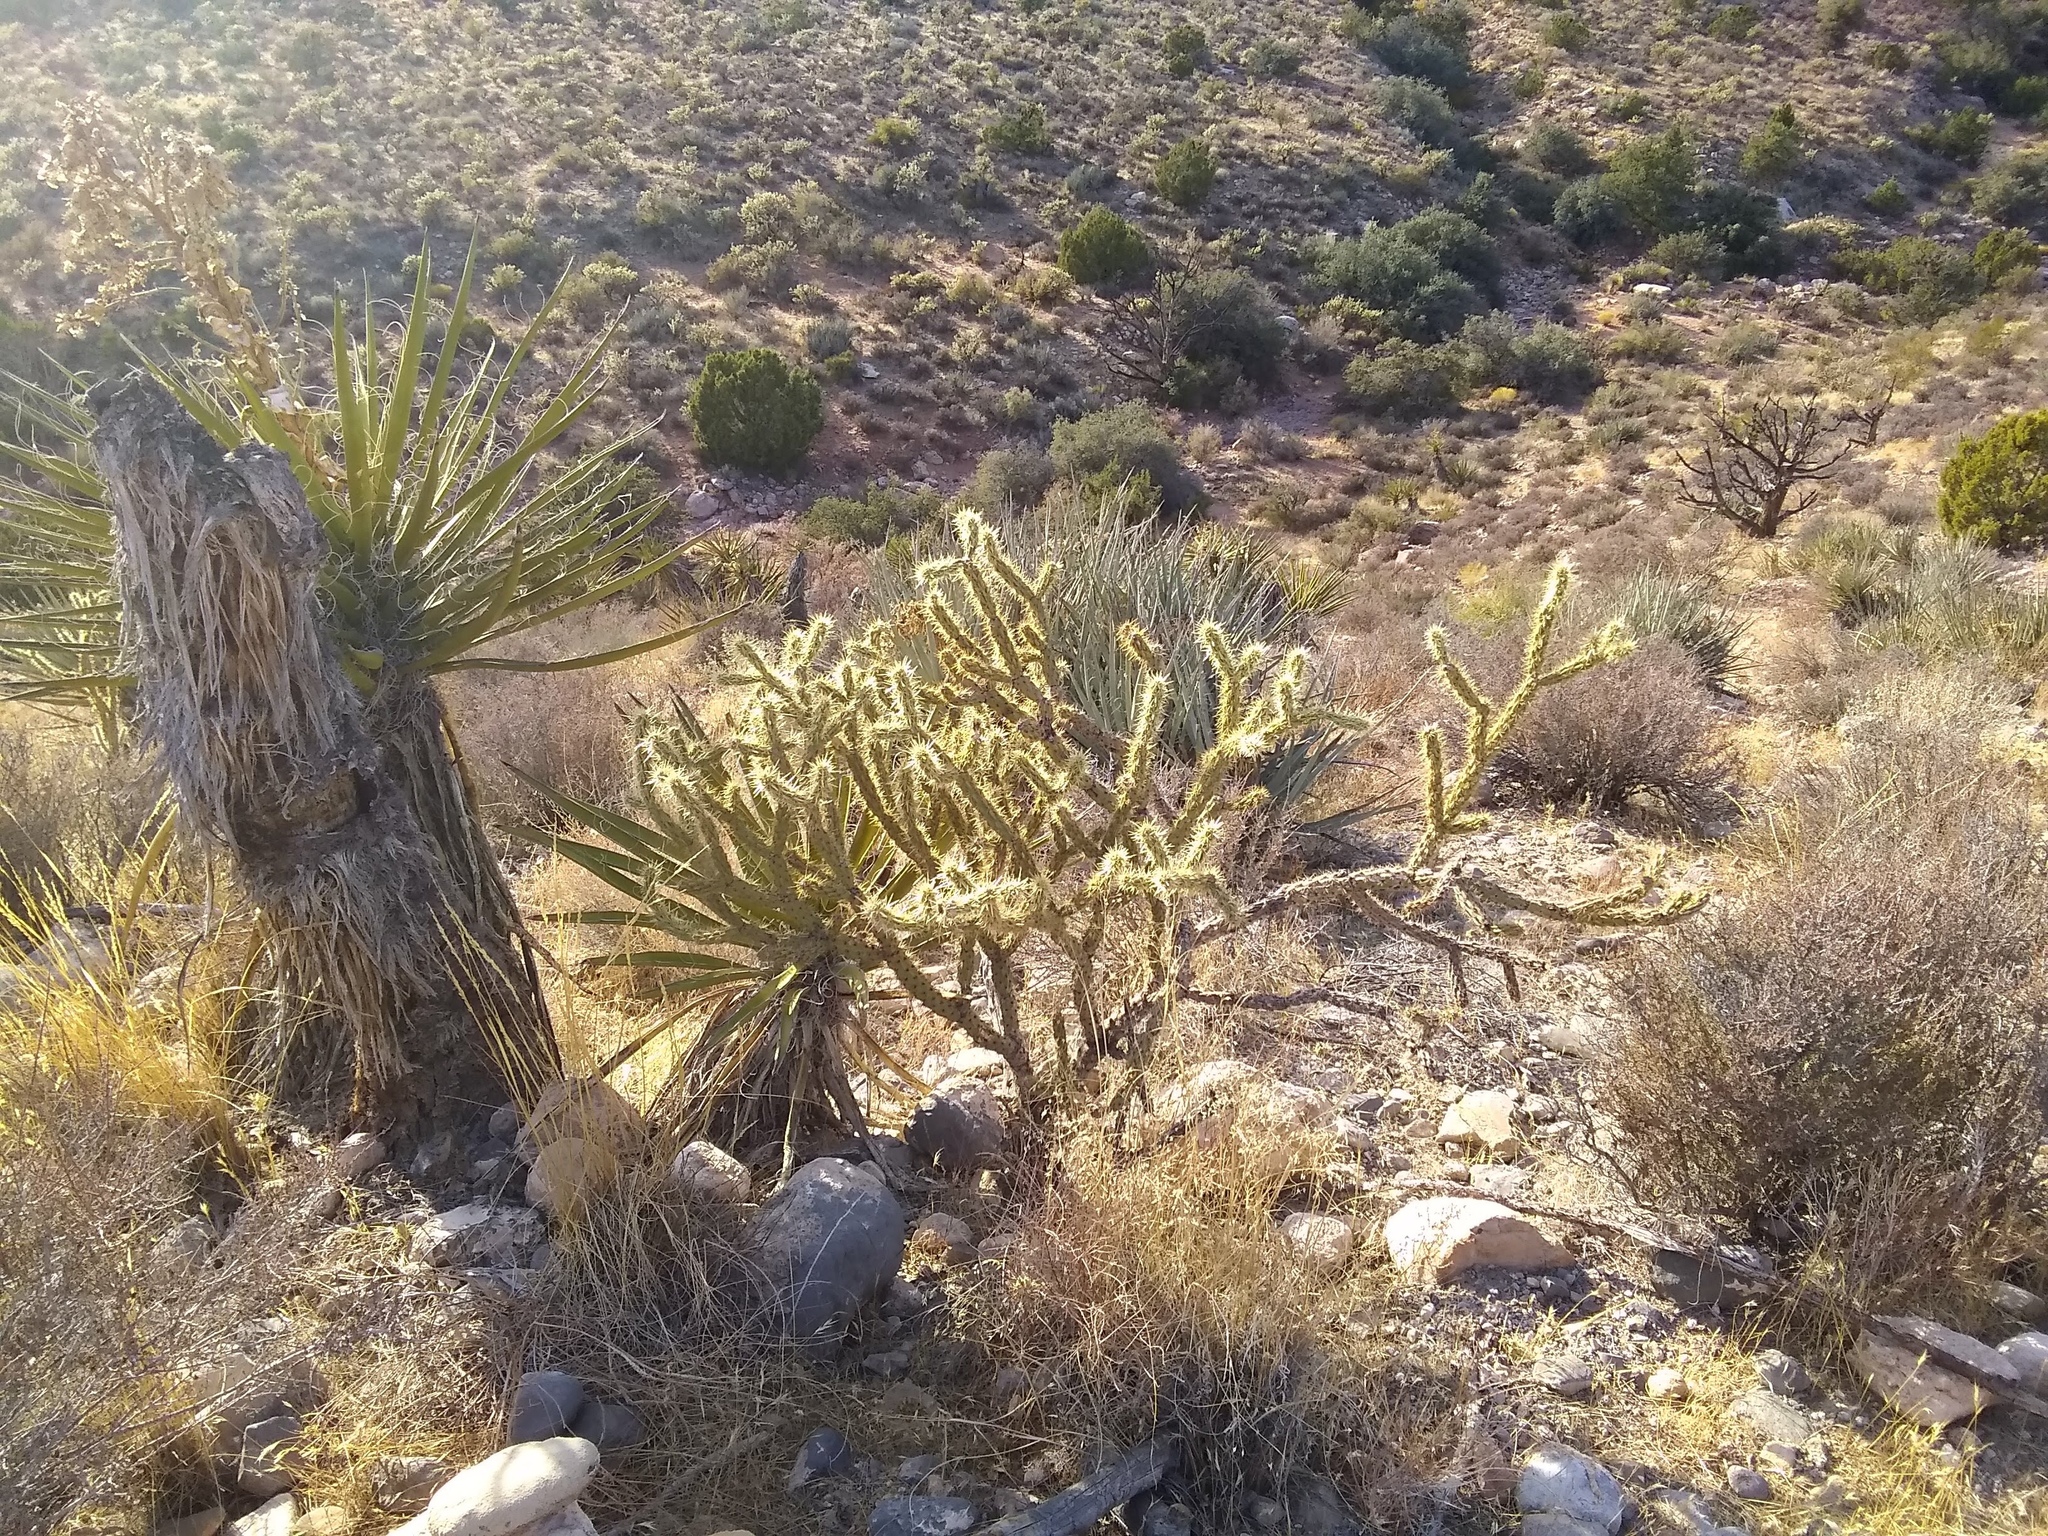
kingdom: Plantae
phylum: Tracheophyta
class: Magnoliopsida
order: Caryophyllales
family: Cactaceae
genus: Cylindropuntia
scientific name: Cylindropuntia acanthocarpa
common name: Buckhorn cholla
